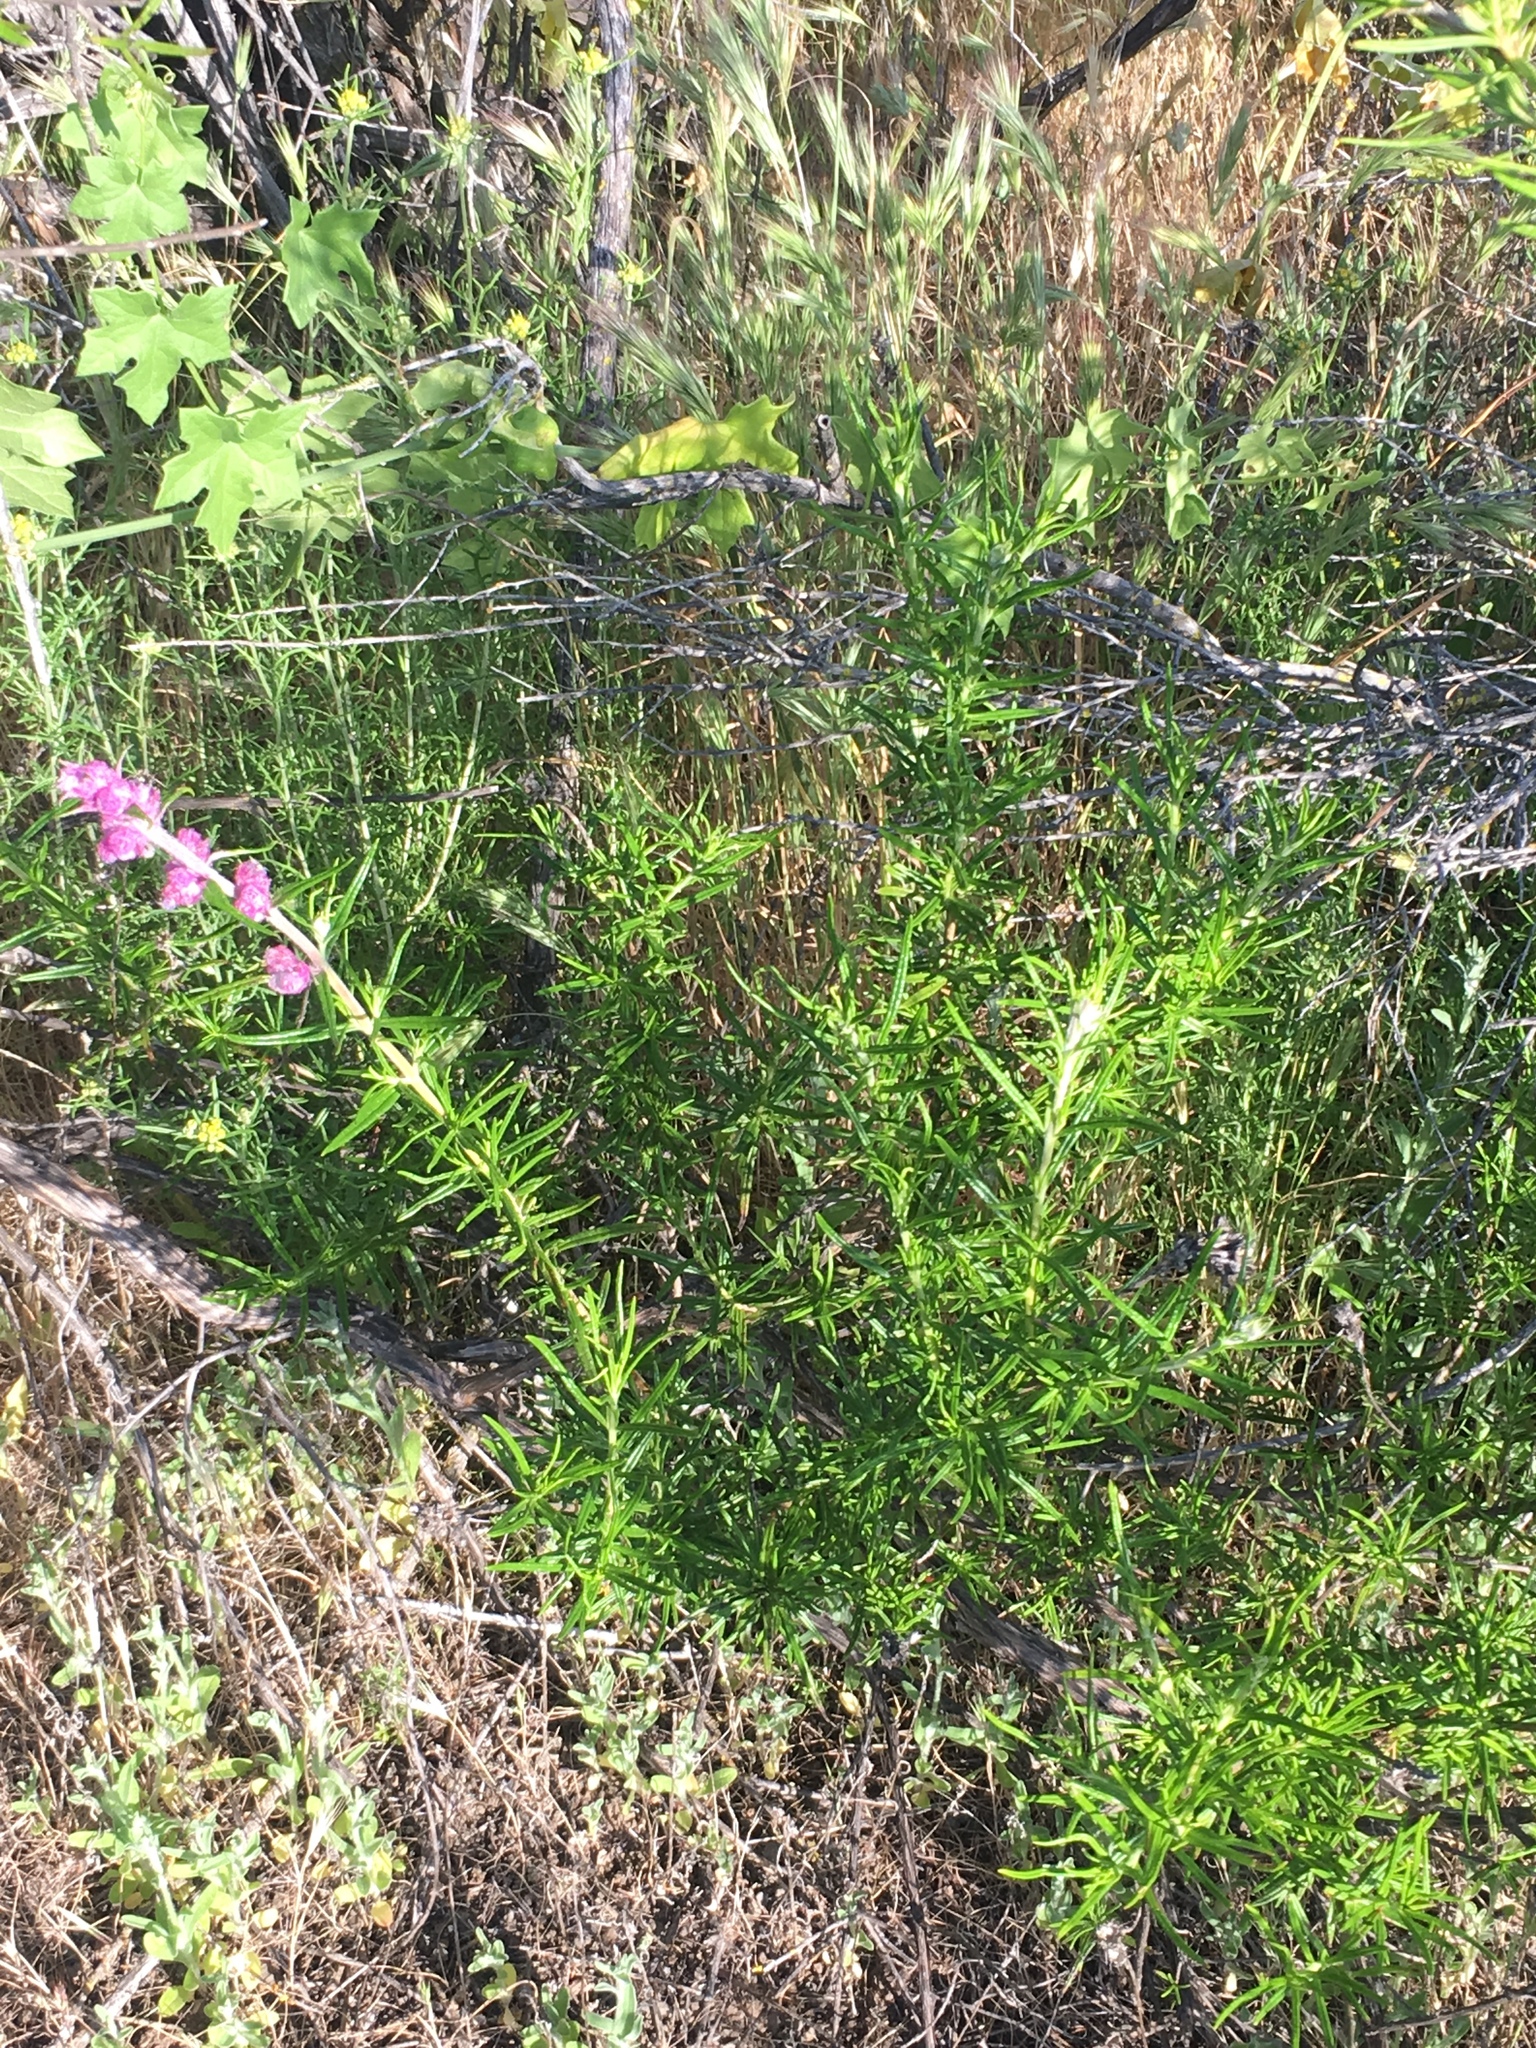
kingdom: Plantae
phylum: Tracheophyta
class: Magnoliopsida
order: Lamiales
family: Lamiaceae
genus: Trichostema
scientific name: Trichostema lanatum
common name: Woolly bluecurls
